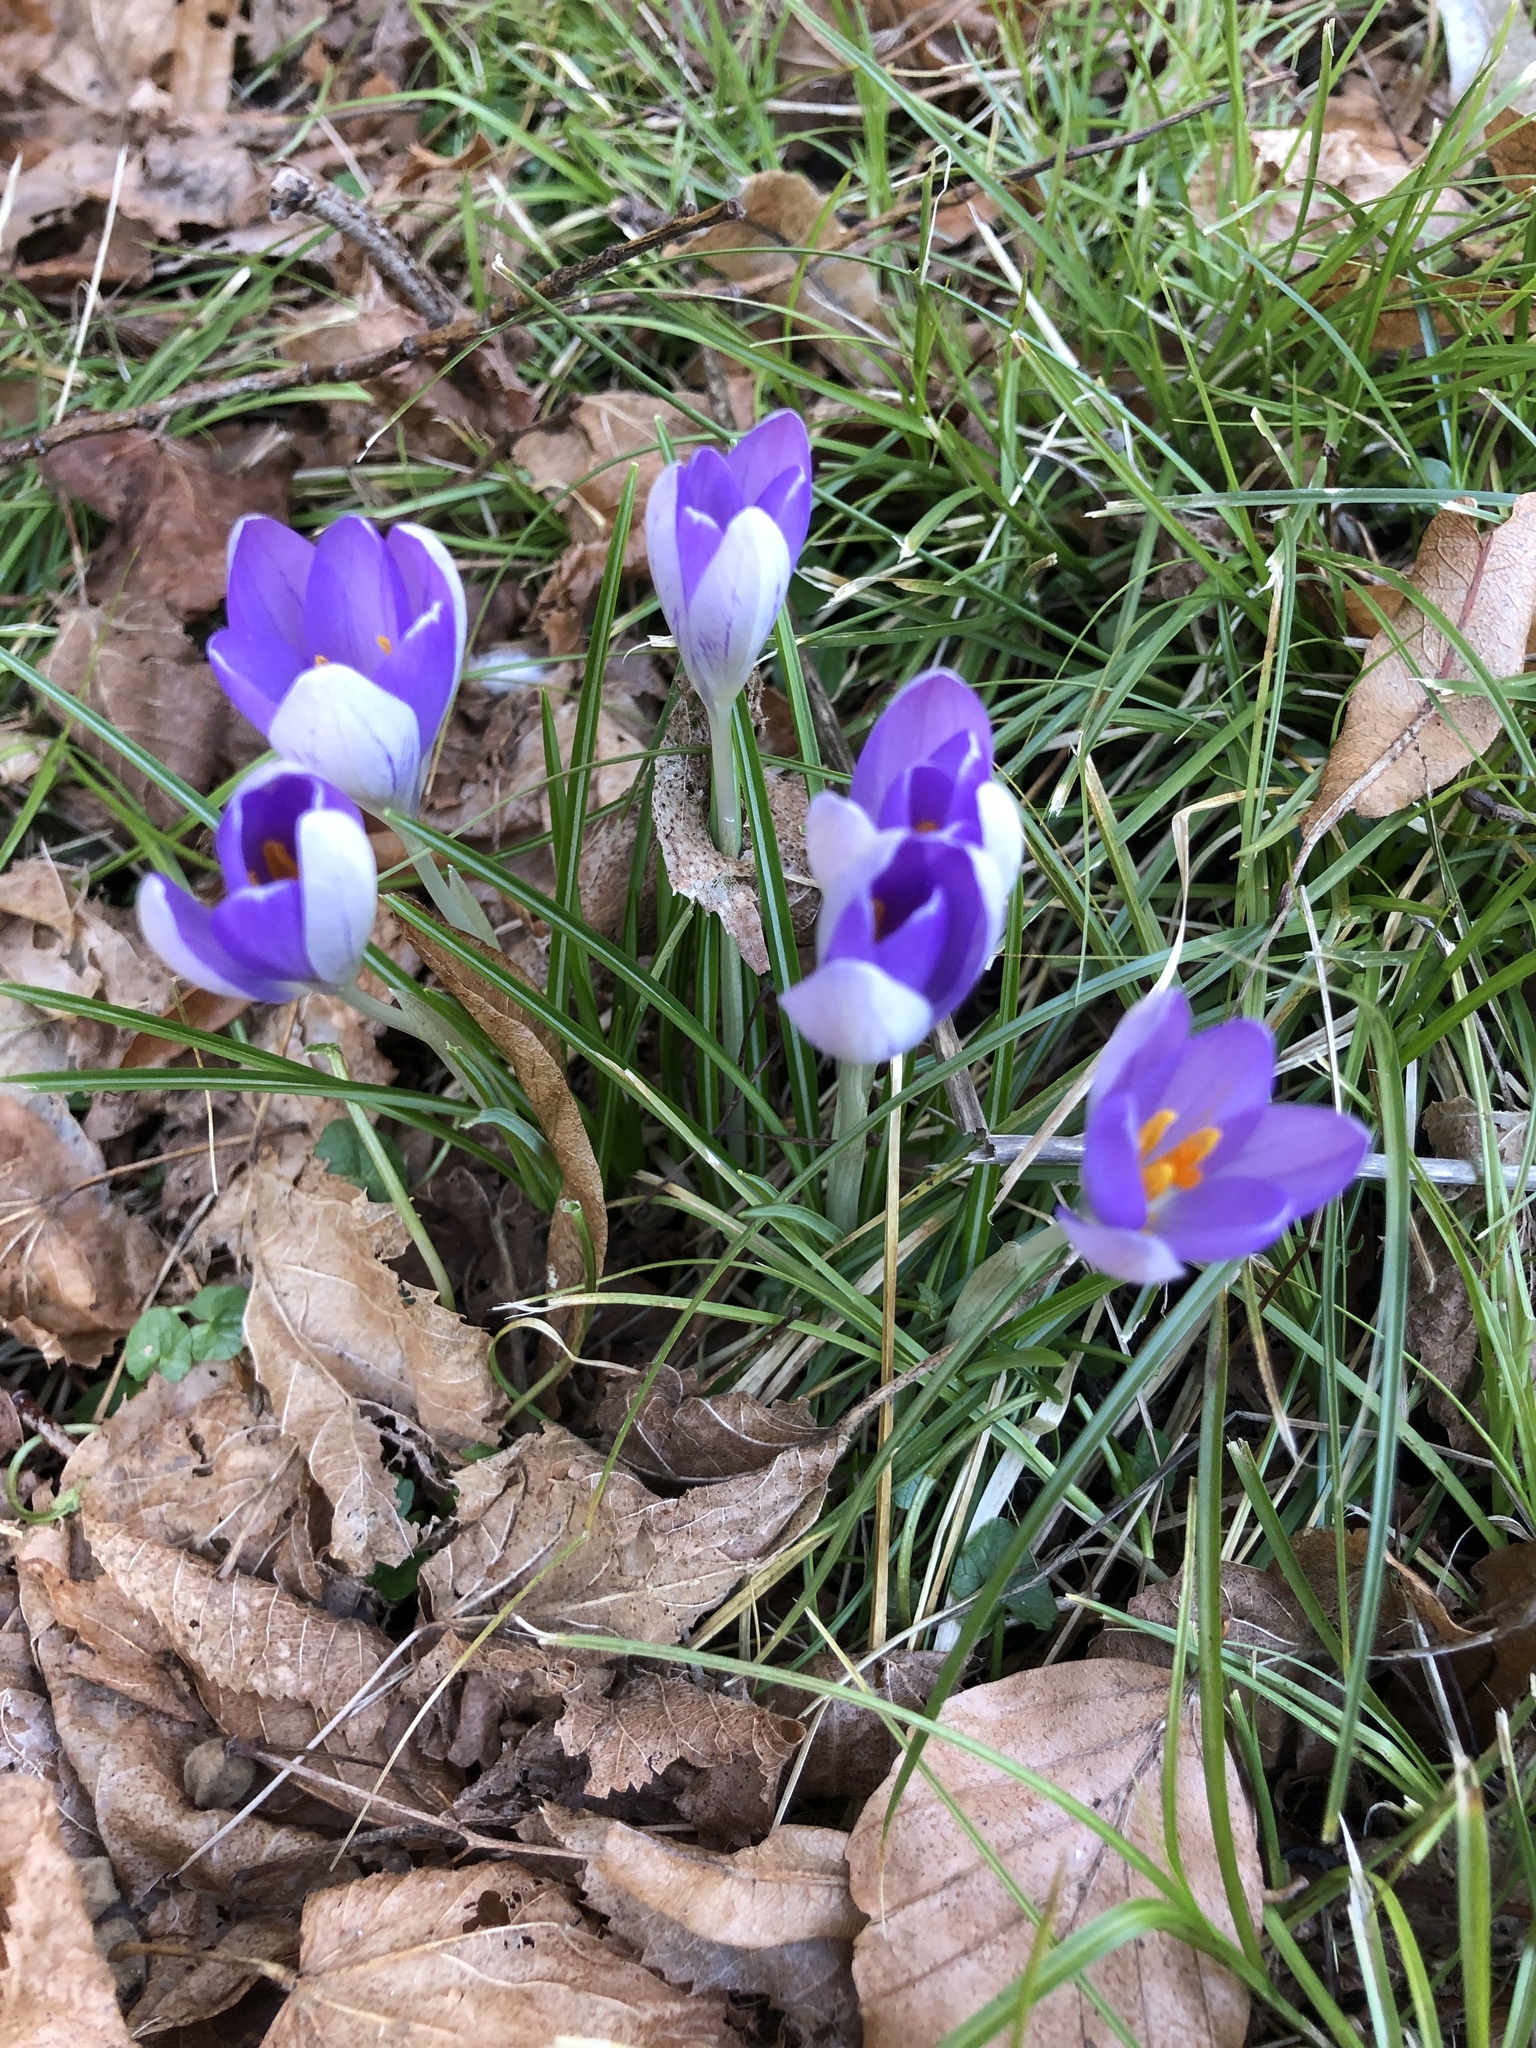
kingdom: Plantae
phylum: Tracheophyta
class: Liliopsida
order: Asparagales
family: Iridaceae
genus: Crocus
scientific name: Crocus tommasinianus
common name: Early crocus
